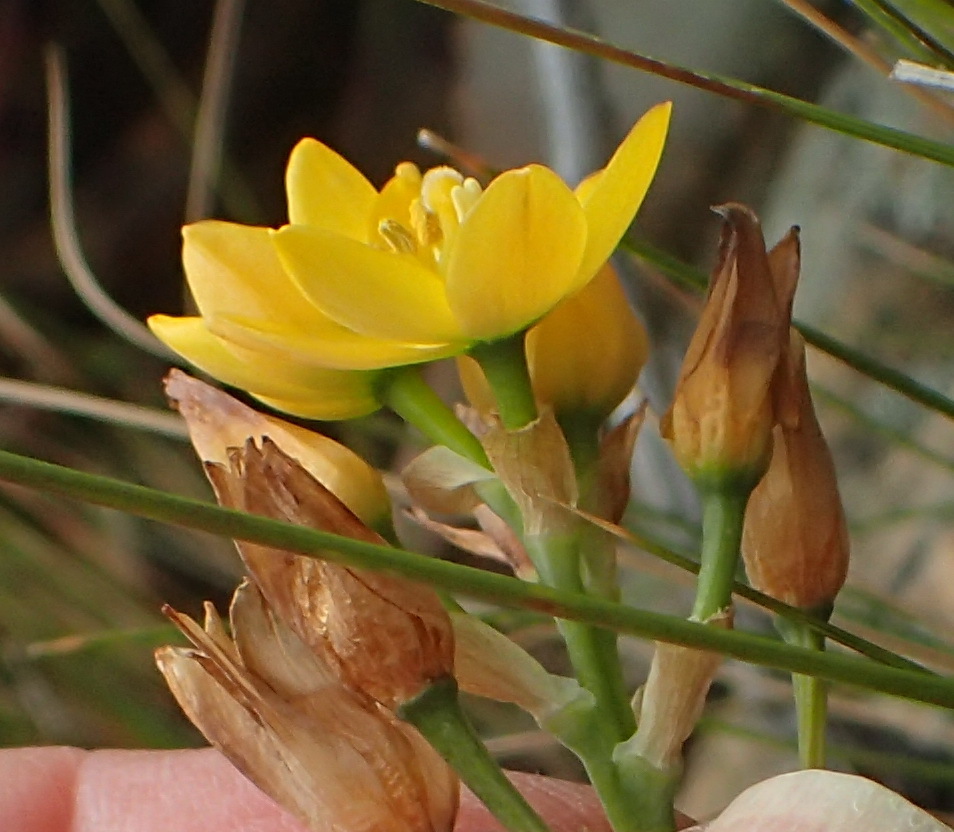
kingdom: Plantae
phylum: Tracheophyta
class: Liliopsida
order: Asparagales
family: Asparagaceae
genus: Ornithogalum
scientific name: Ornithogalum dubium
